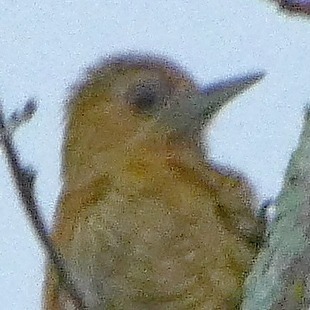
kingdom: Animalia
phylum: Chordata
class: Aves
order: Piciformes
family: Picidae
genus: Veniliornis
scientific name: Veniliornis passerinus
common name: Little woodpecker
